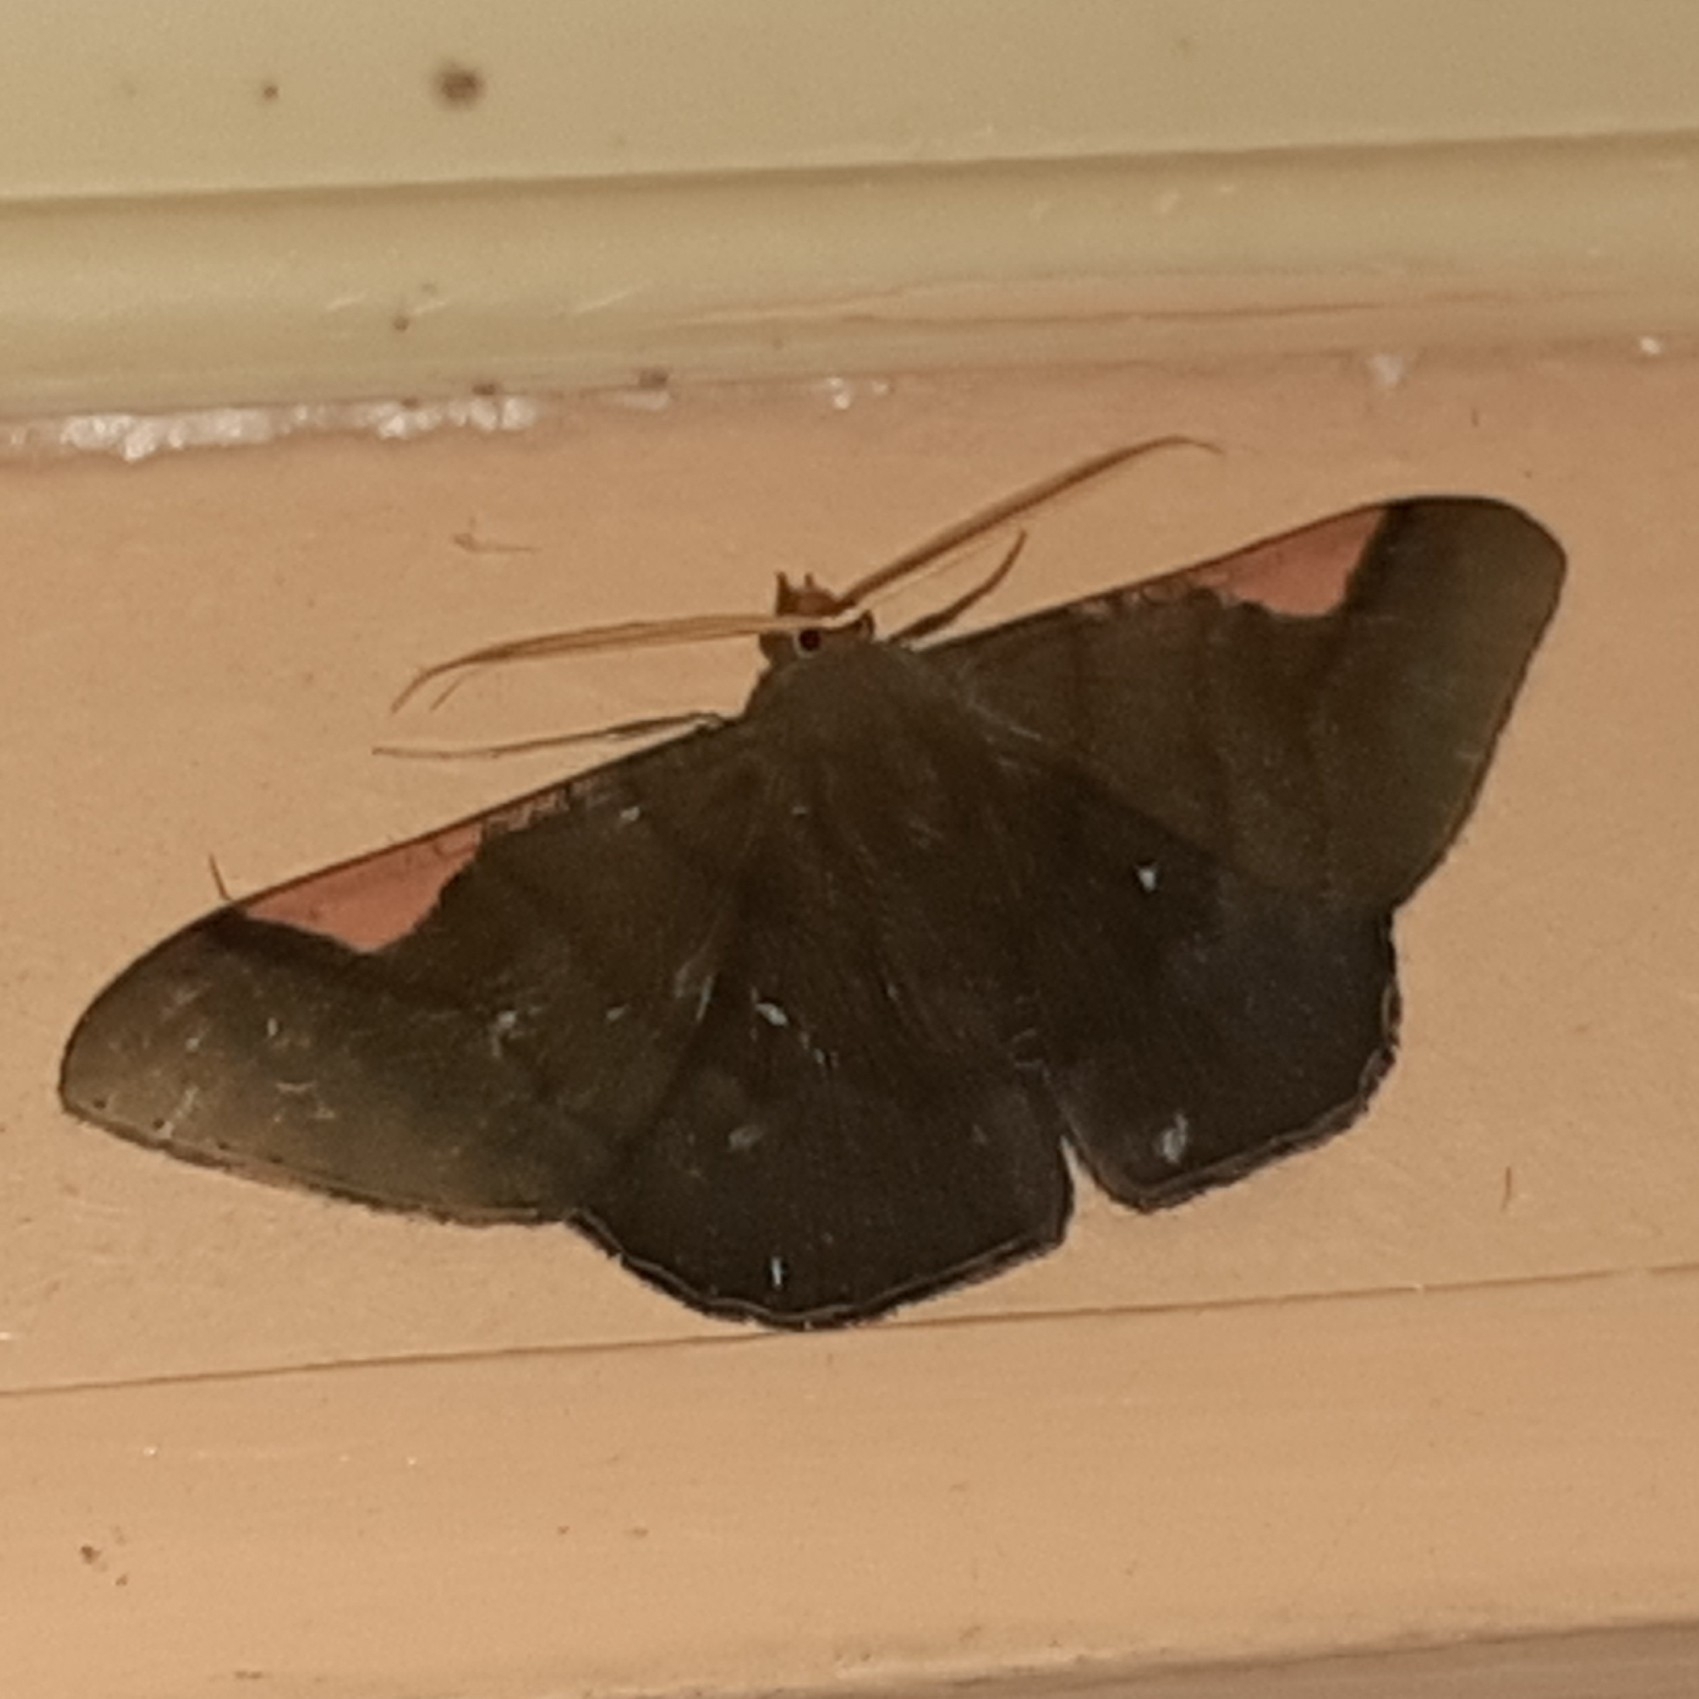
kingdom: Animalia
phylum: Arthropoda
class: Insecta
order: Lepidoptera
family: Geometridae
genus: Sphacelodes
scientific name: Sphacelodes vulneraria
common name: Looper moth
